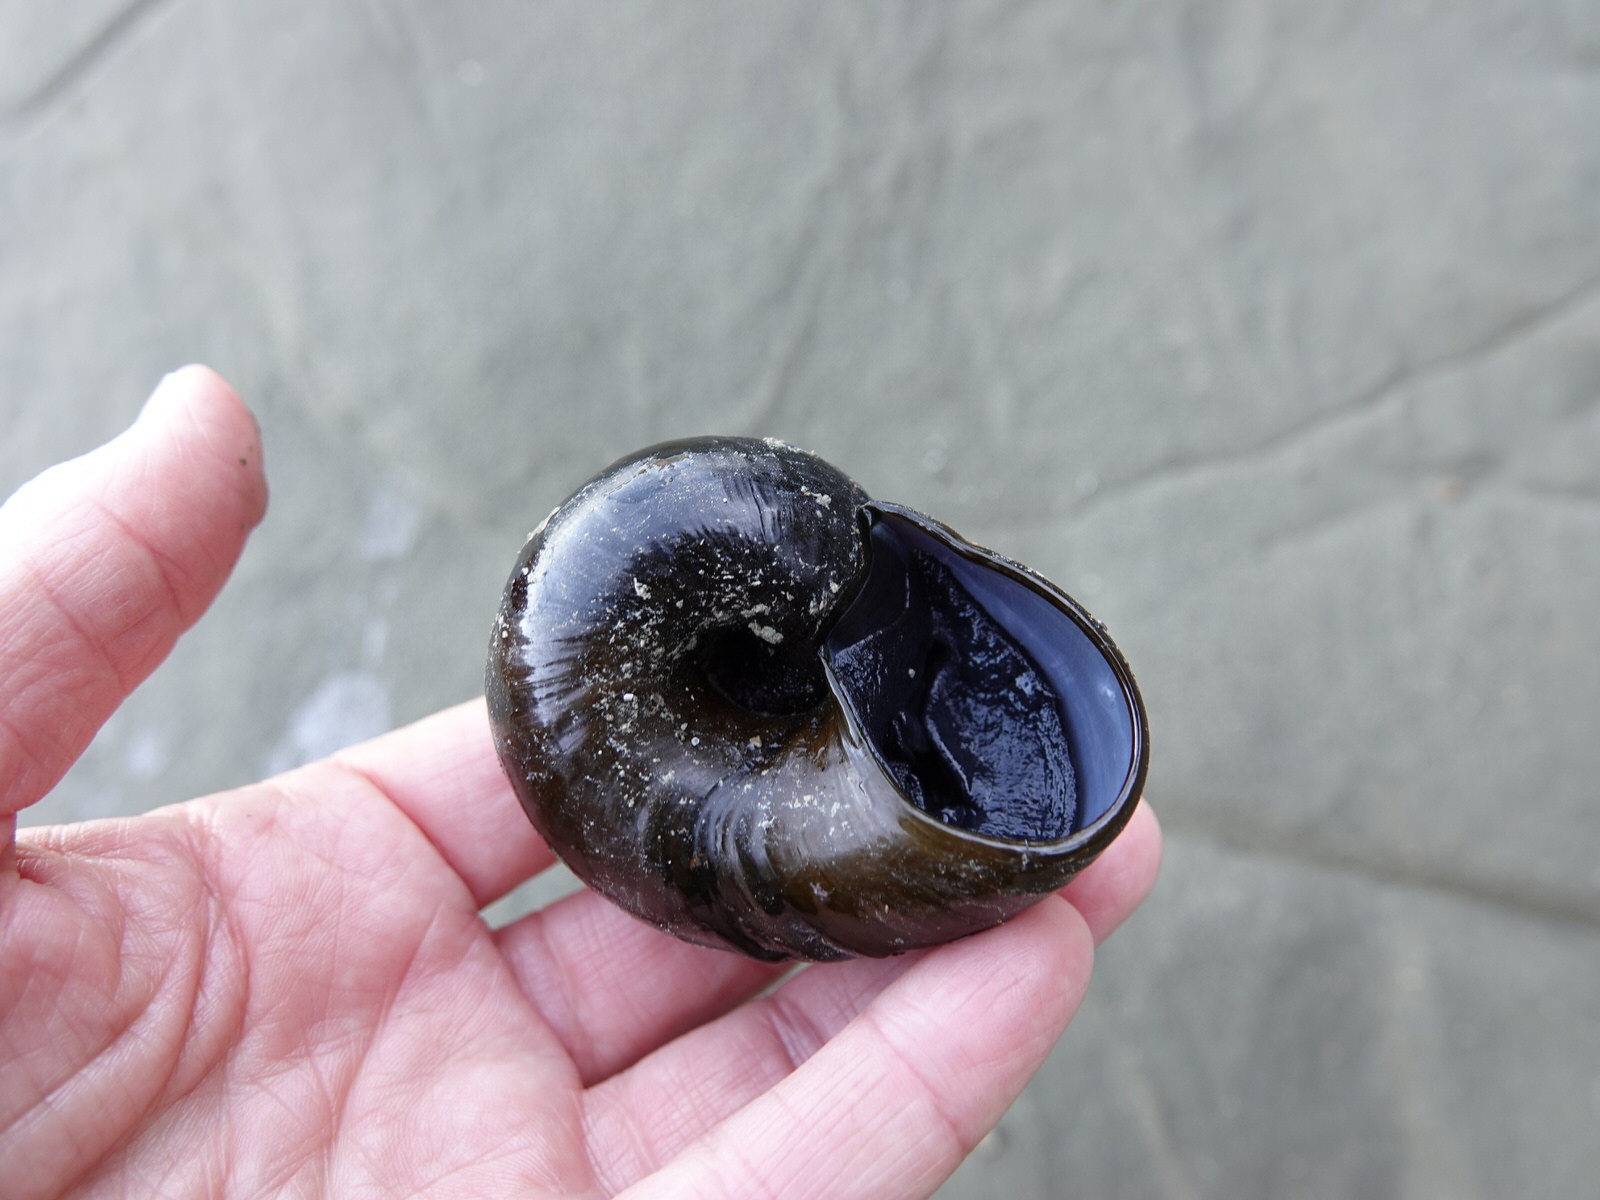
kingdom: Animalia
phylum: Mollusca
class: Gastropoda
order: Stylommatophora
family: Rhytididae
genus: Paryphanta
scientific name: Paryphanta busbyi
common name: Kauri snail
